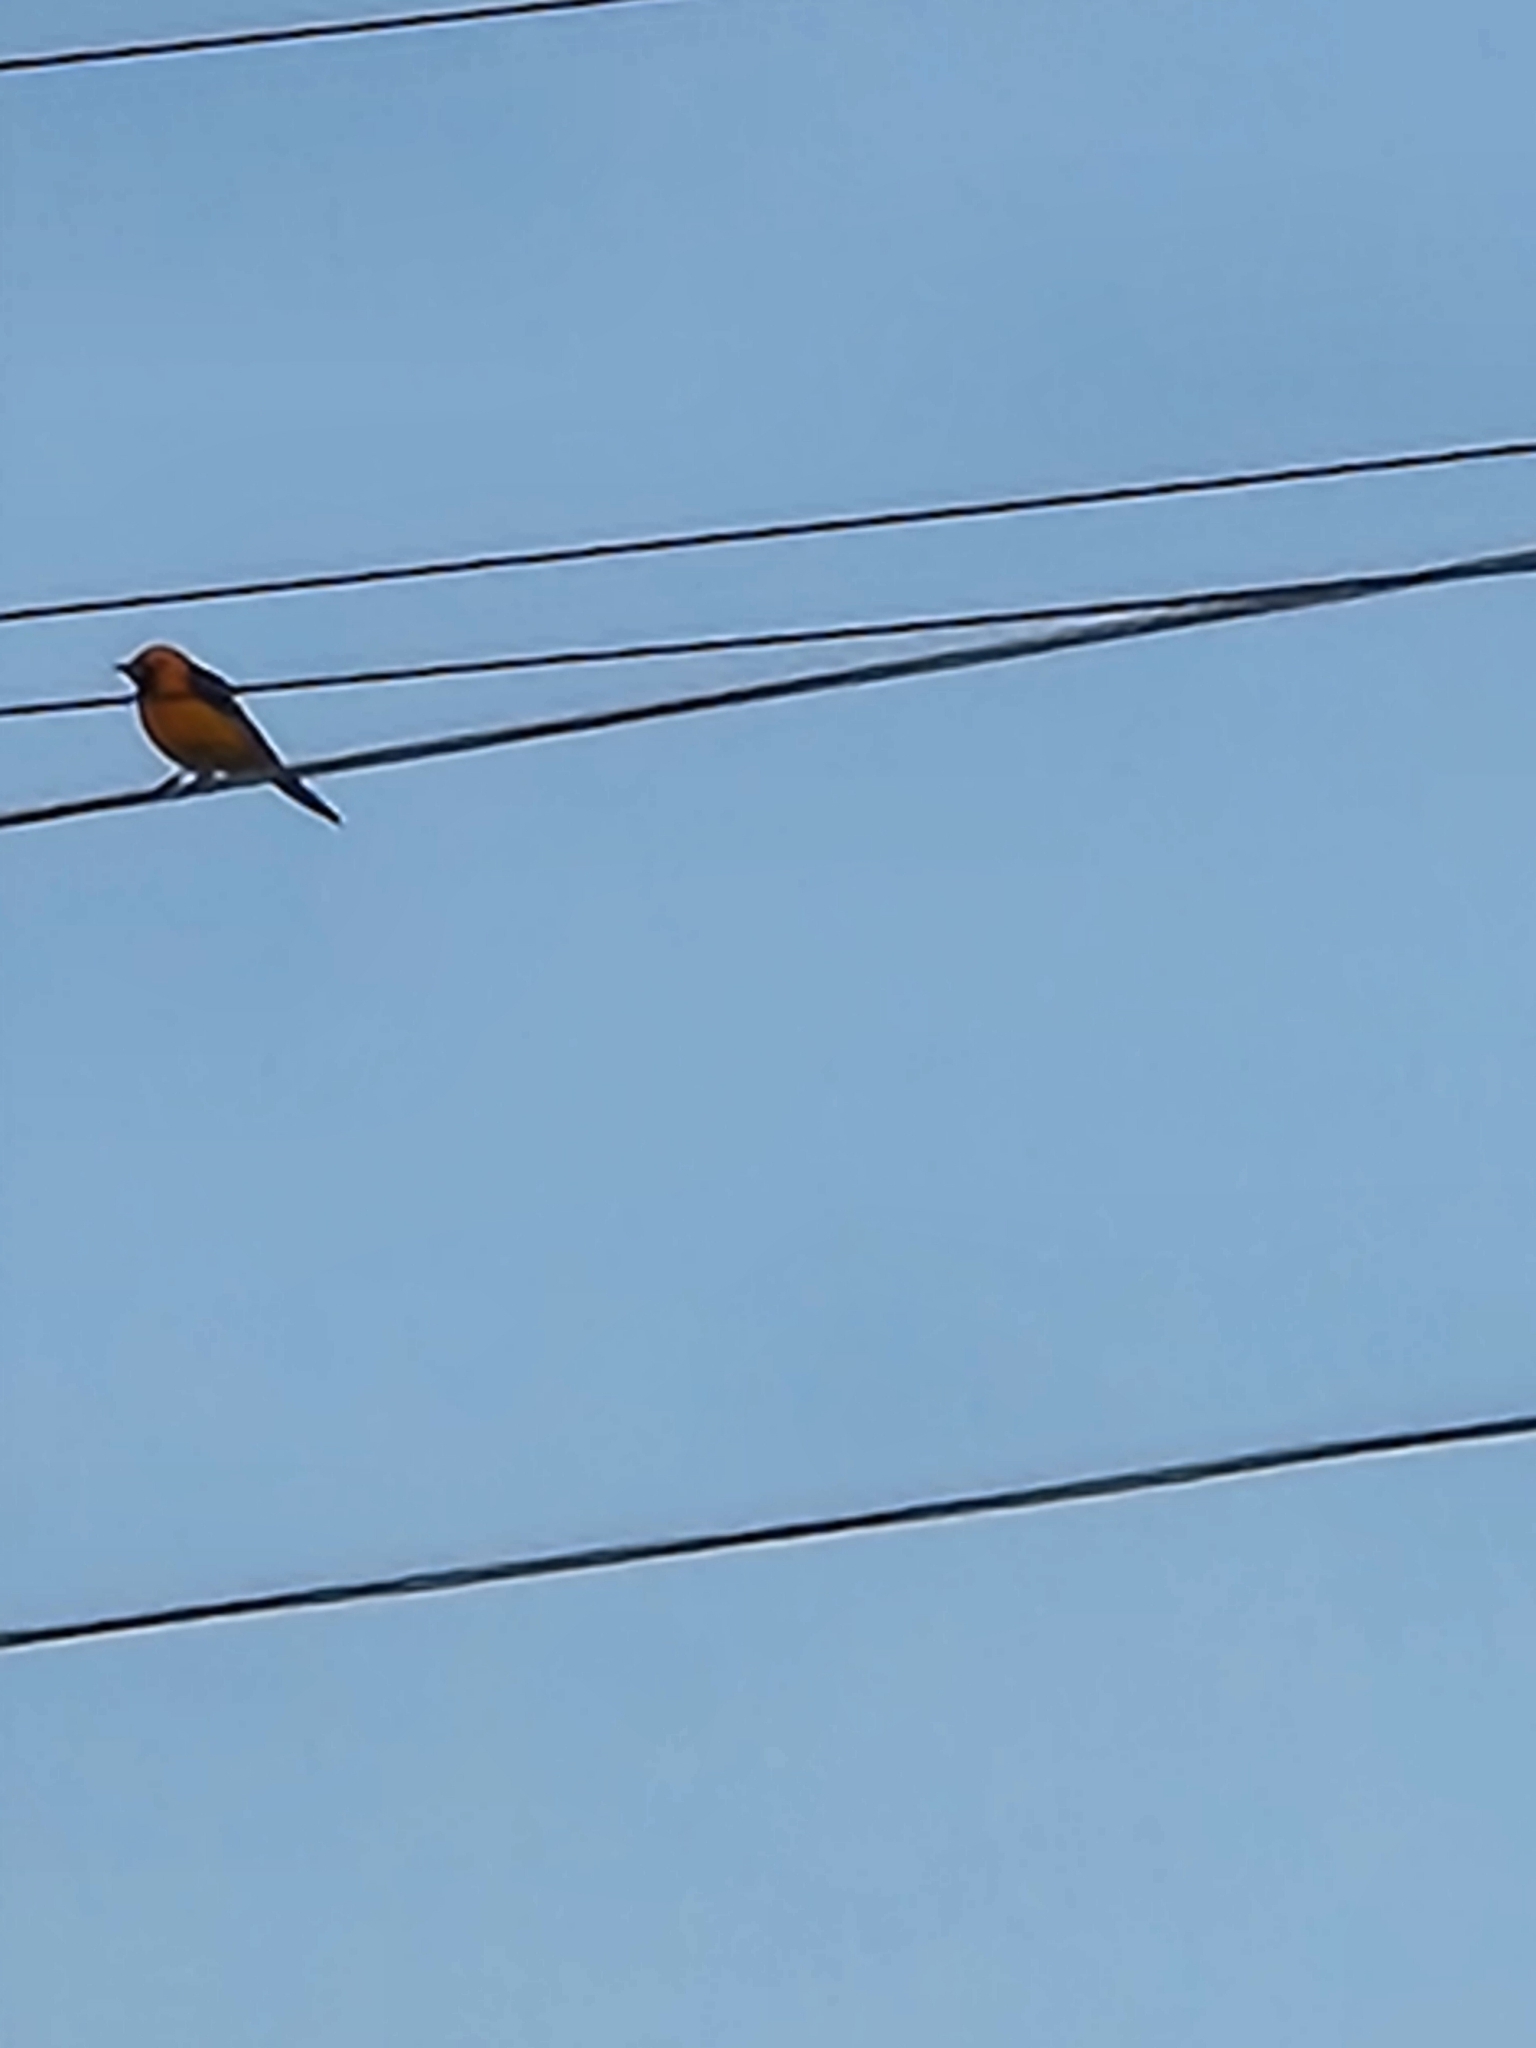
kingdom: Animalia
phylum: Chordata
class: Aves
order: Passeriformes
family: Icteridae
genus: Icterus
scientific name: Icterus cucullatus
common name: Hooded oriole
